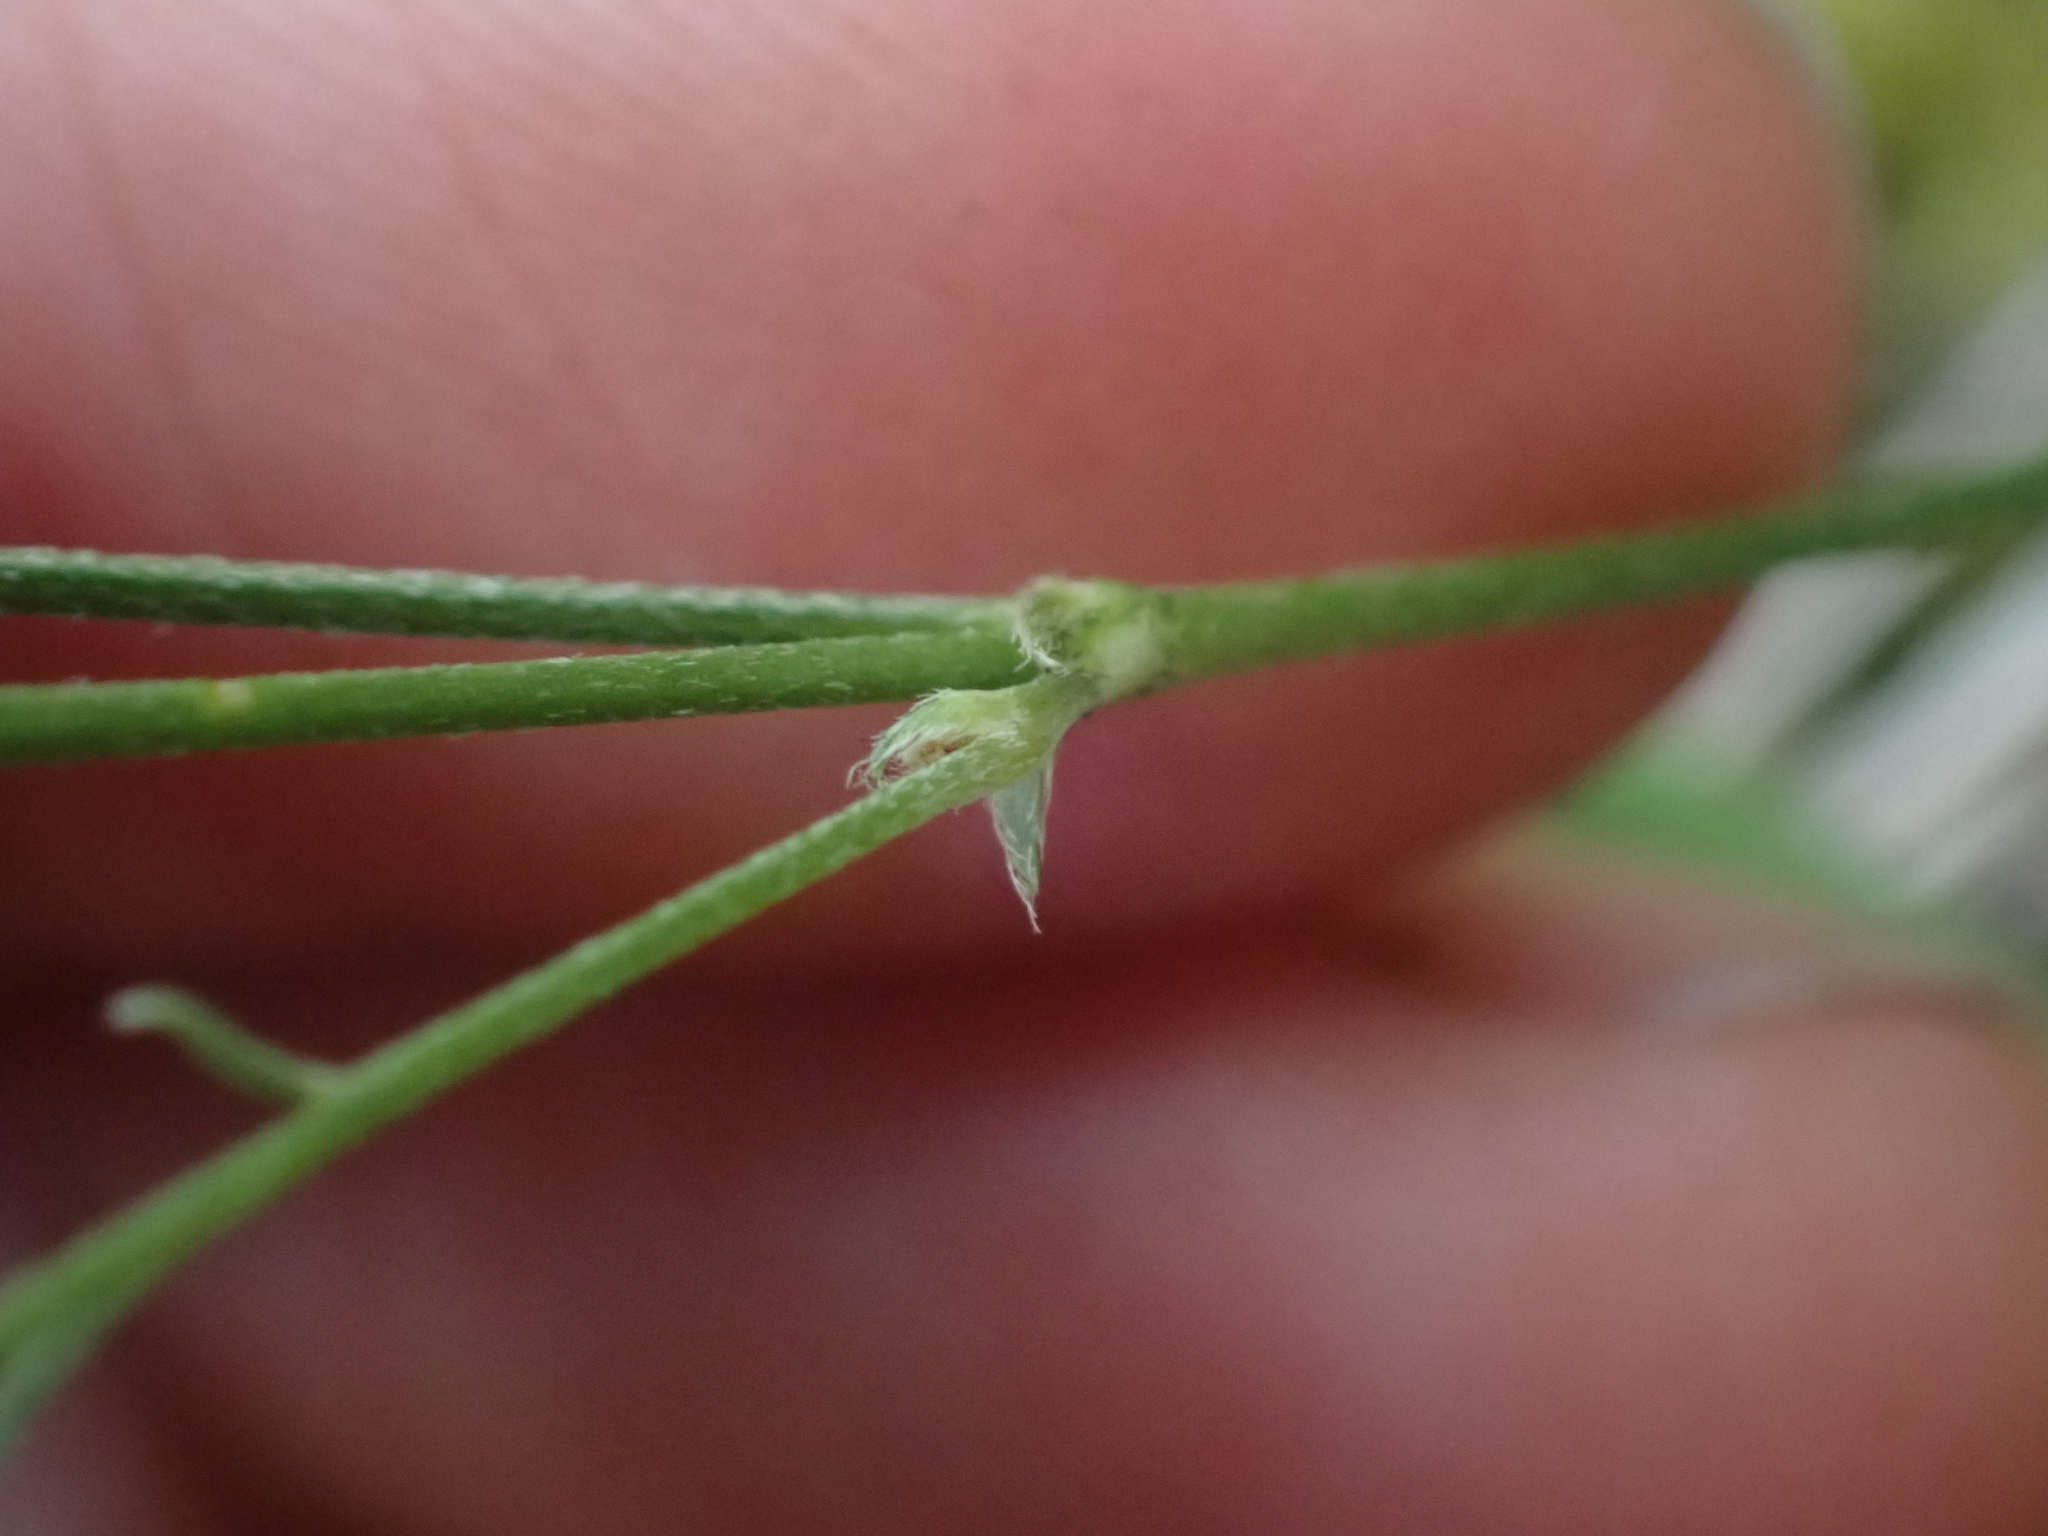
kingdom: Plantae
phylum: Tracheophyta
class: Magnoliopsida
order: Fabales
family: Fabaceae
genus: Astragalus
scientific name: Astragalus miser
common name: Timber milkvetch
